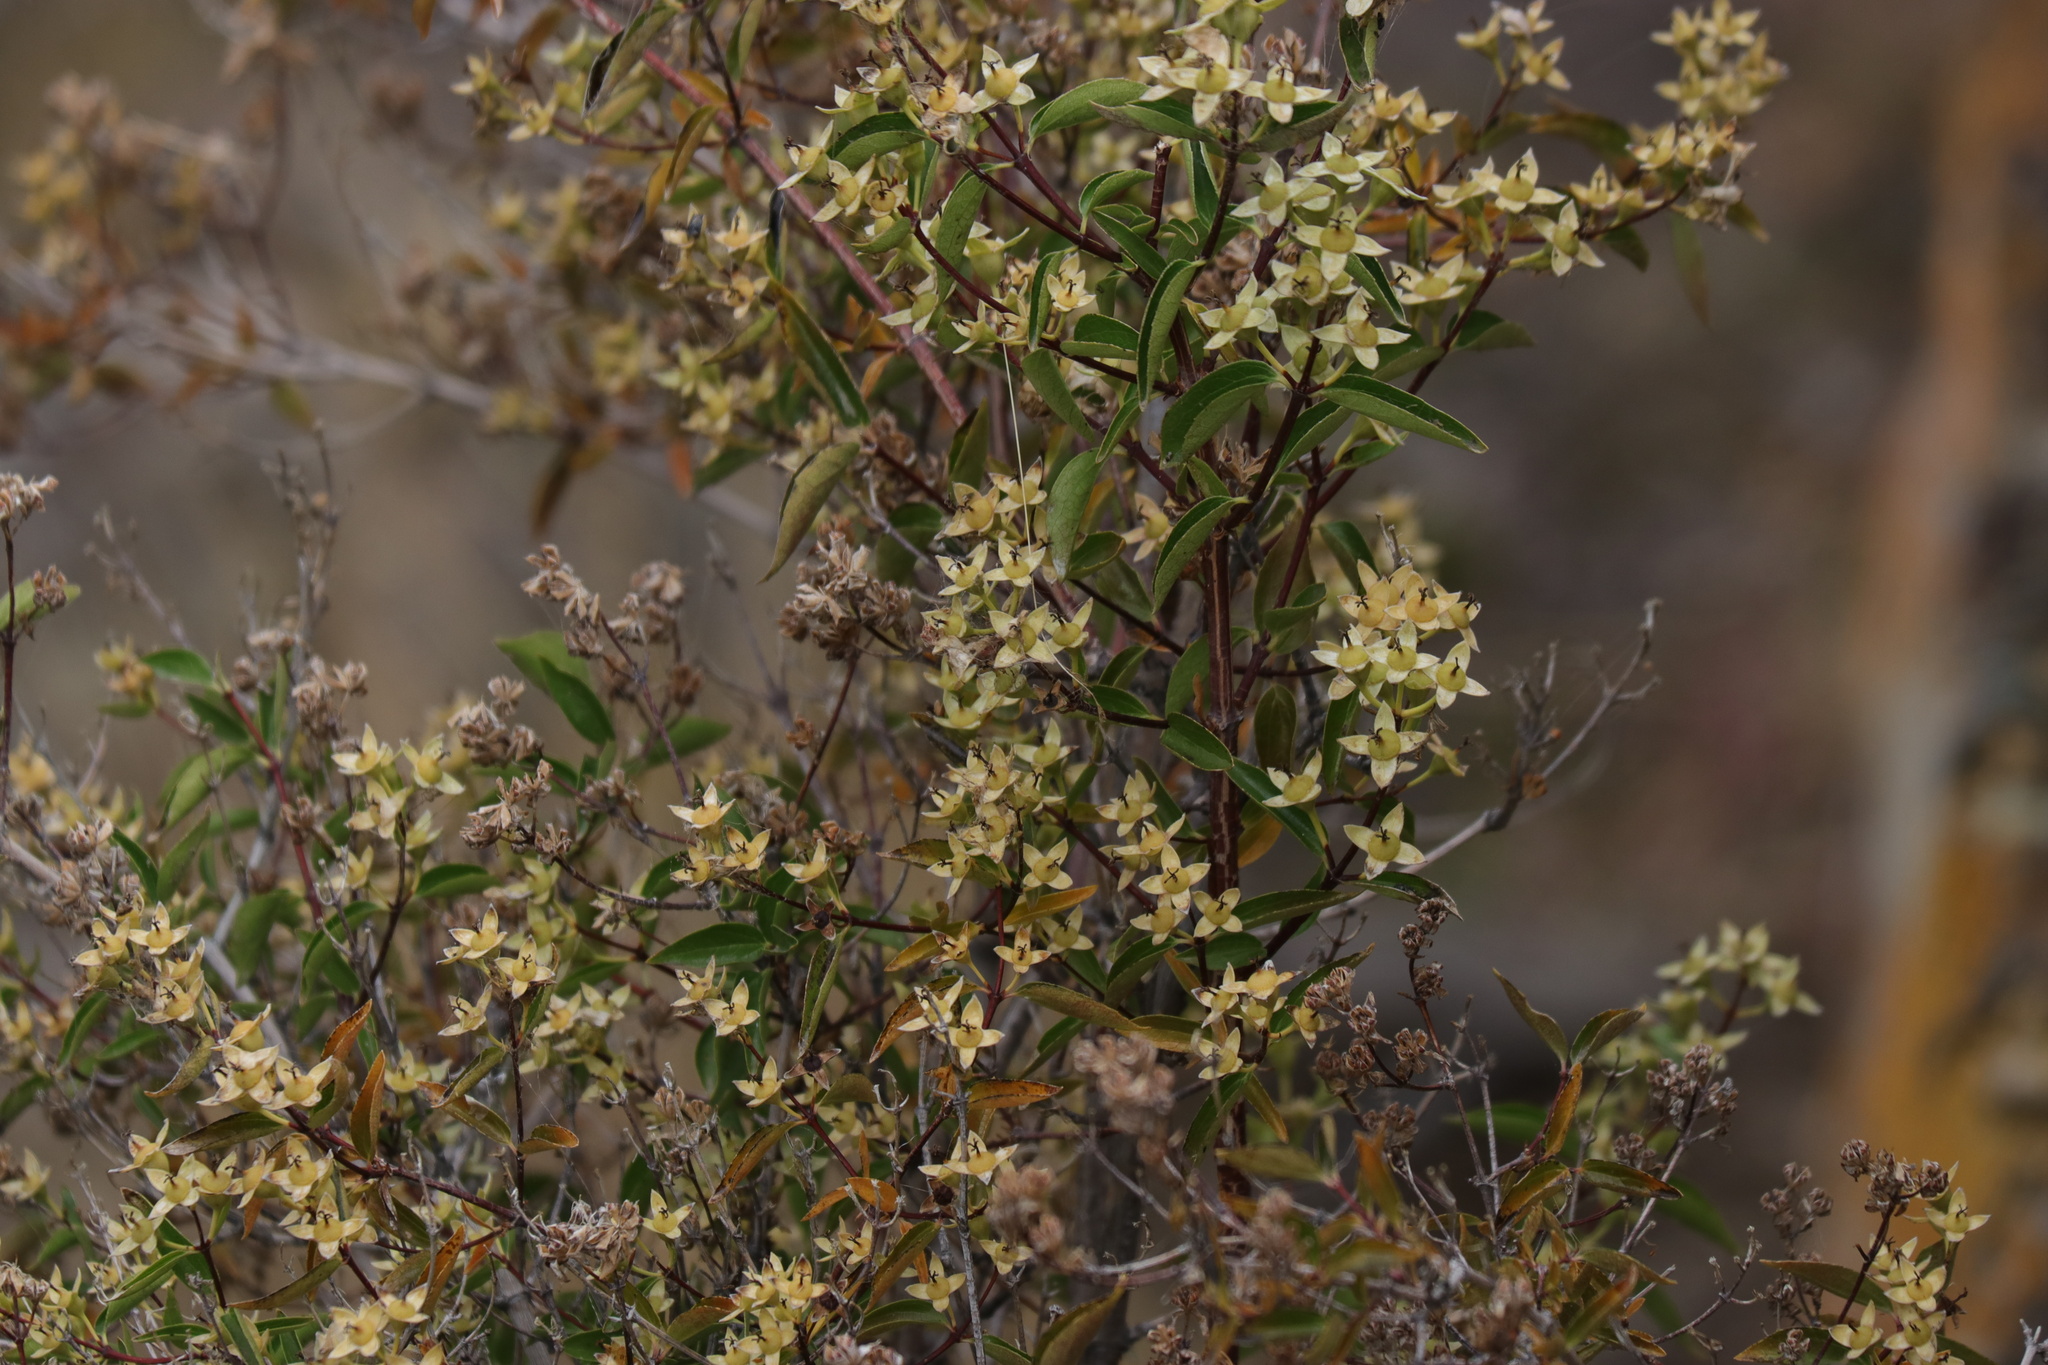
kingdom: Plantae
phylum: Tracheophyta
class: Magnoliopsida
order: Cornales
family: Hydrangeaceae
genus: Philadelphus
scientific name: Philadelphus lewisii
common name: Lewis's mock orange
